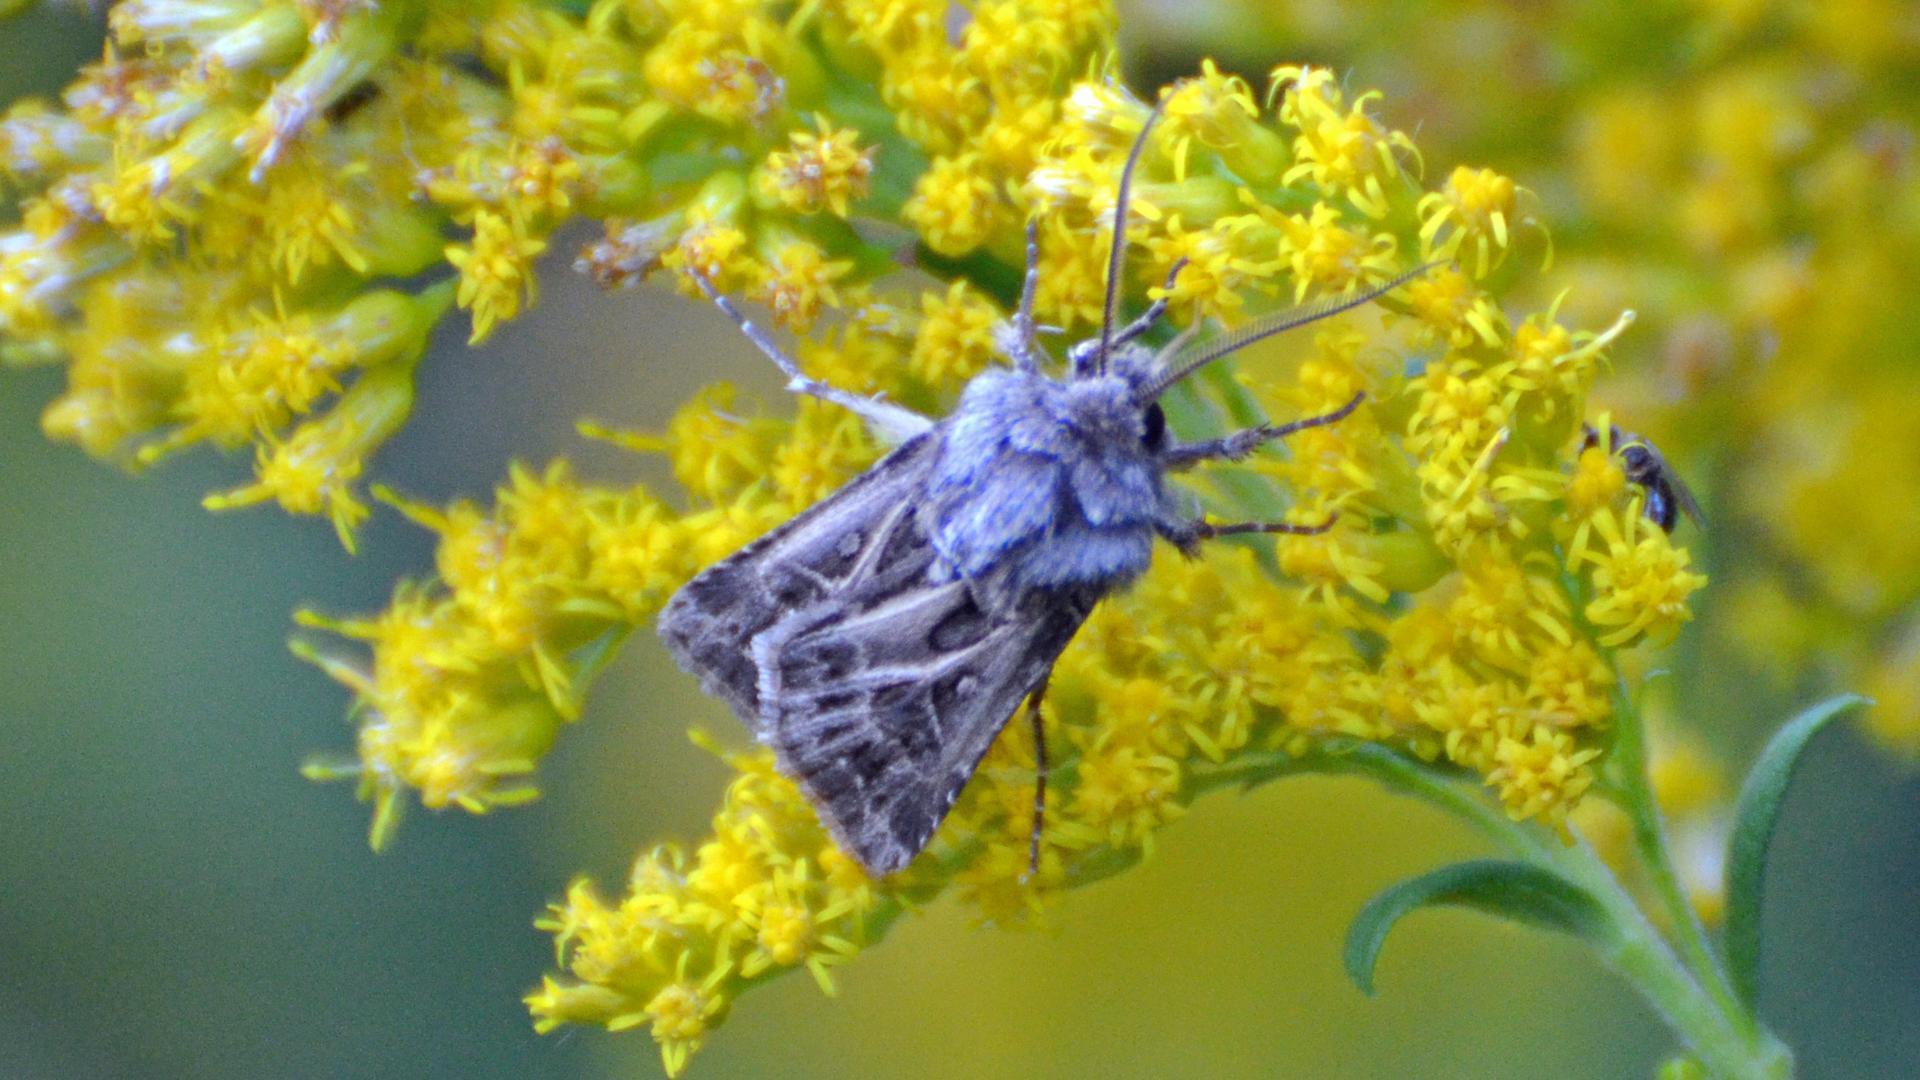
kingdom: Animalia
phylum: Arthropoda
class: Insecta
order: Lepidoptera
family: Noctuidae
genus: Agrotis
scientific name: Agrotis gladiaria
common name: Claybacked cutworm
